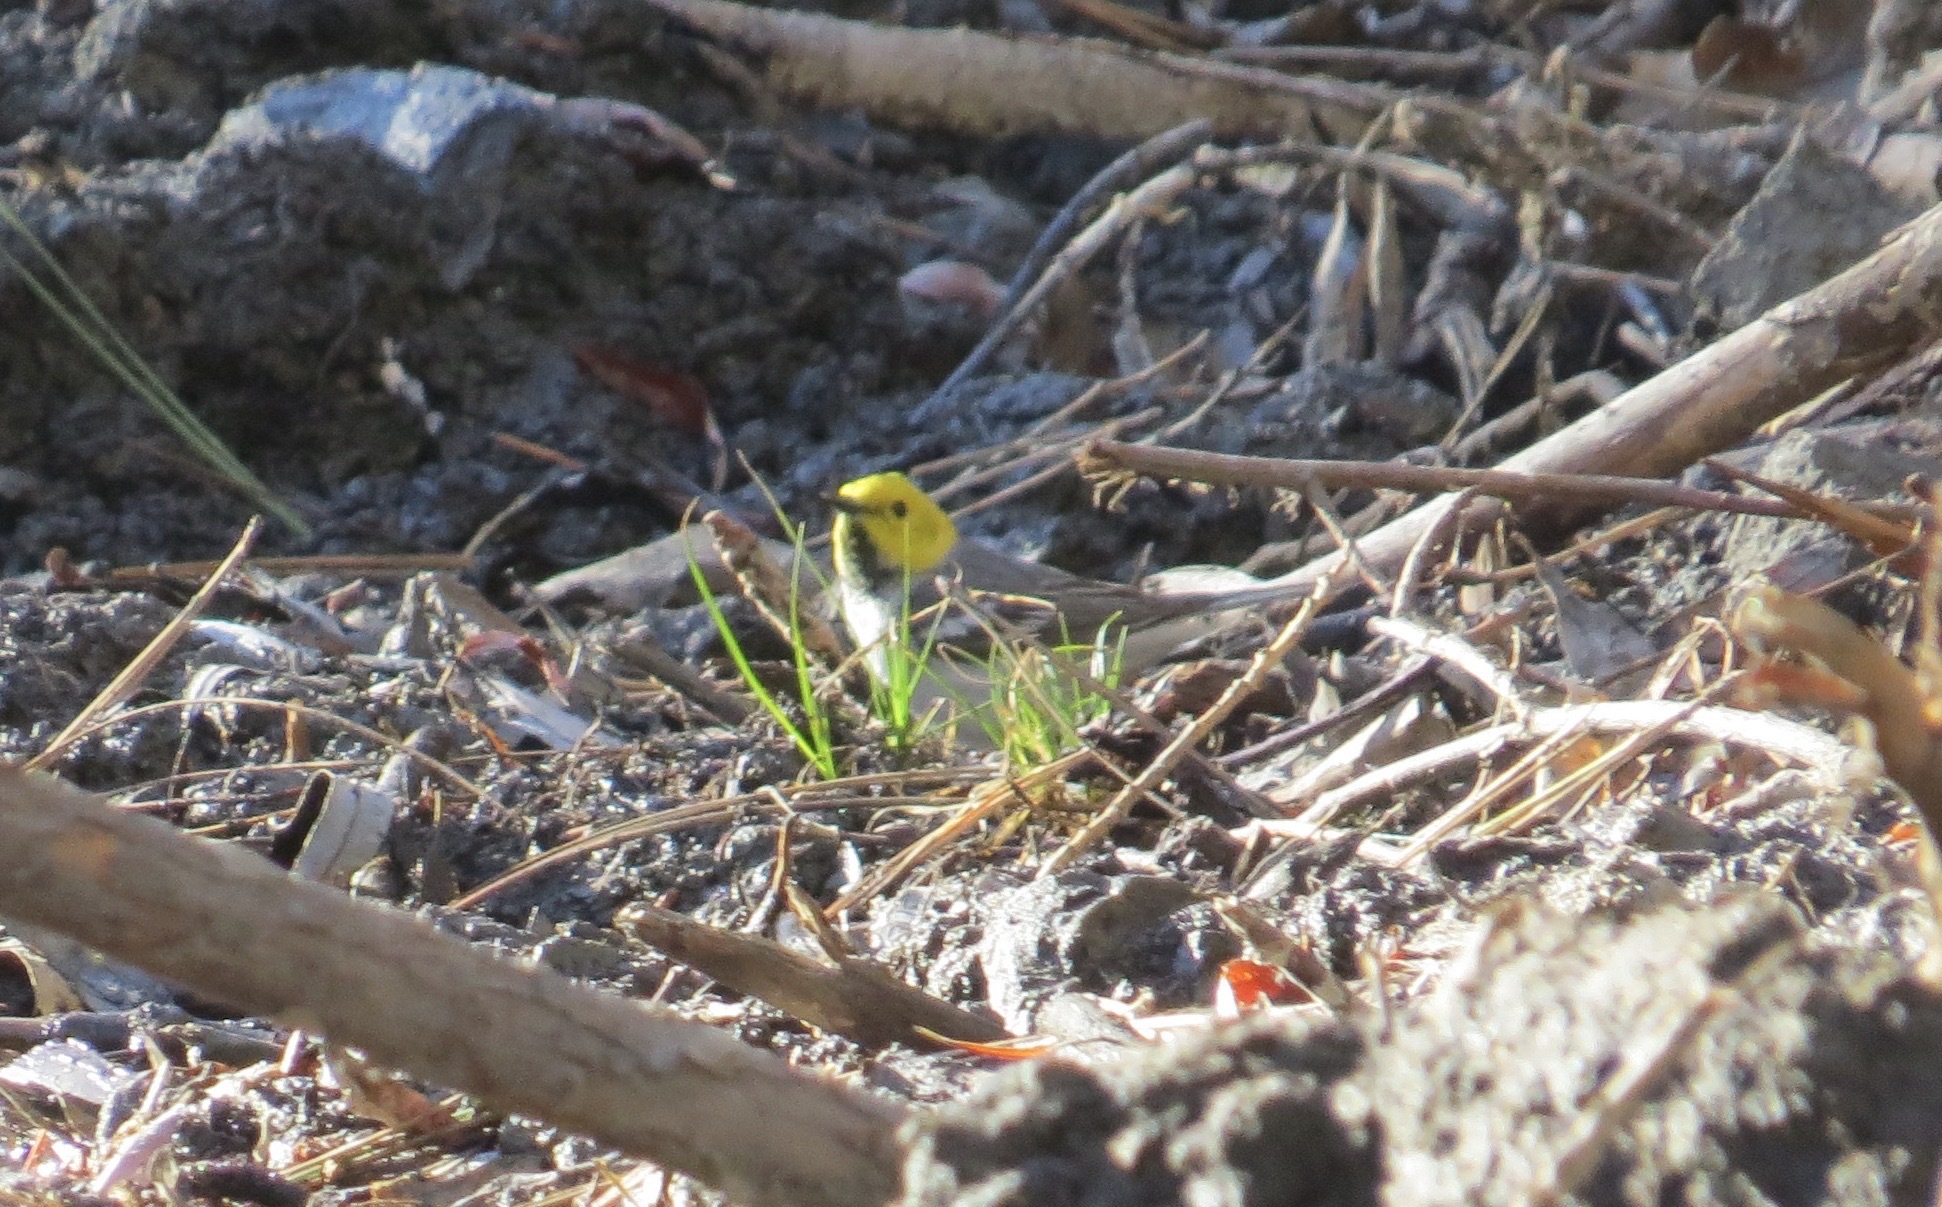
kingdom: Animalia
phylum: Chordata
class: Aves
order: Passeriformes
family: Parulidae
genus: Setophaga
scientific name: Setophaga occidentalis
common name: Hermit warbler
